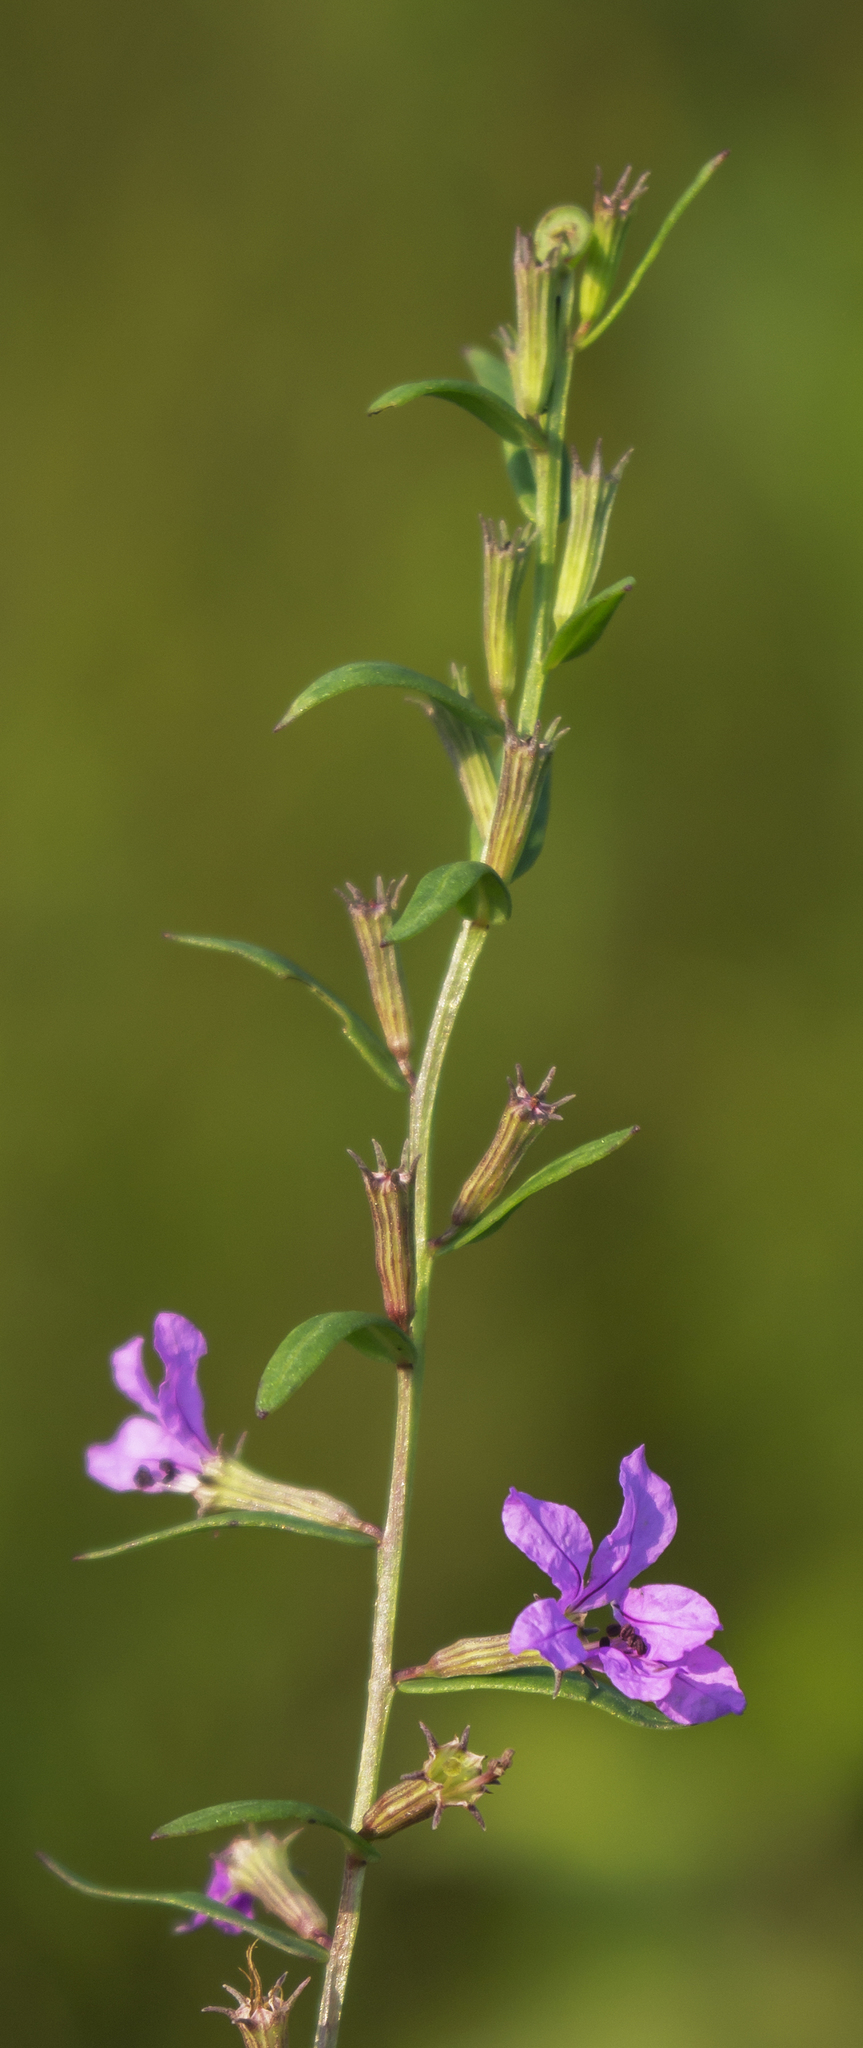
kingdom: Plantae
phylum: Tracheophyta
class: Magnoliopsida
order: Myrtales
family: Lythraceae
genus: Lythrum
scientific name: Lythrum alatum
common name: Winged loosestrife
